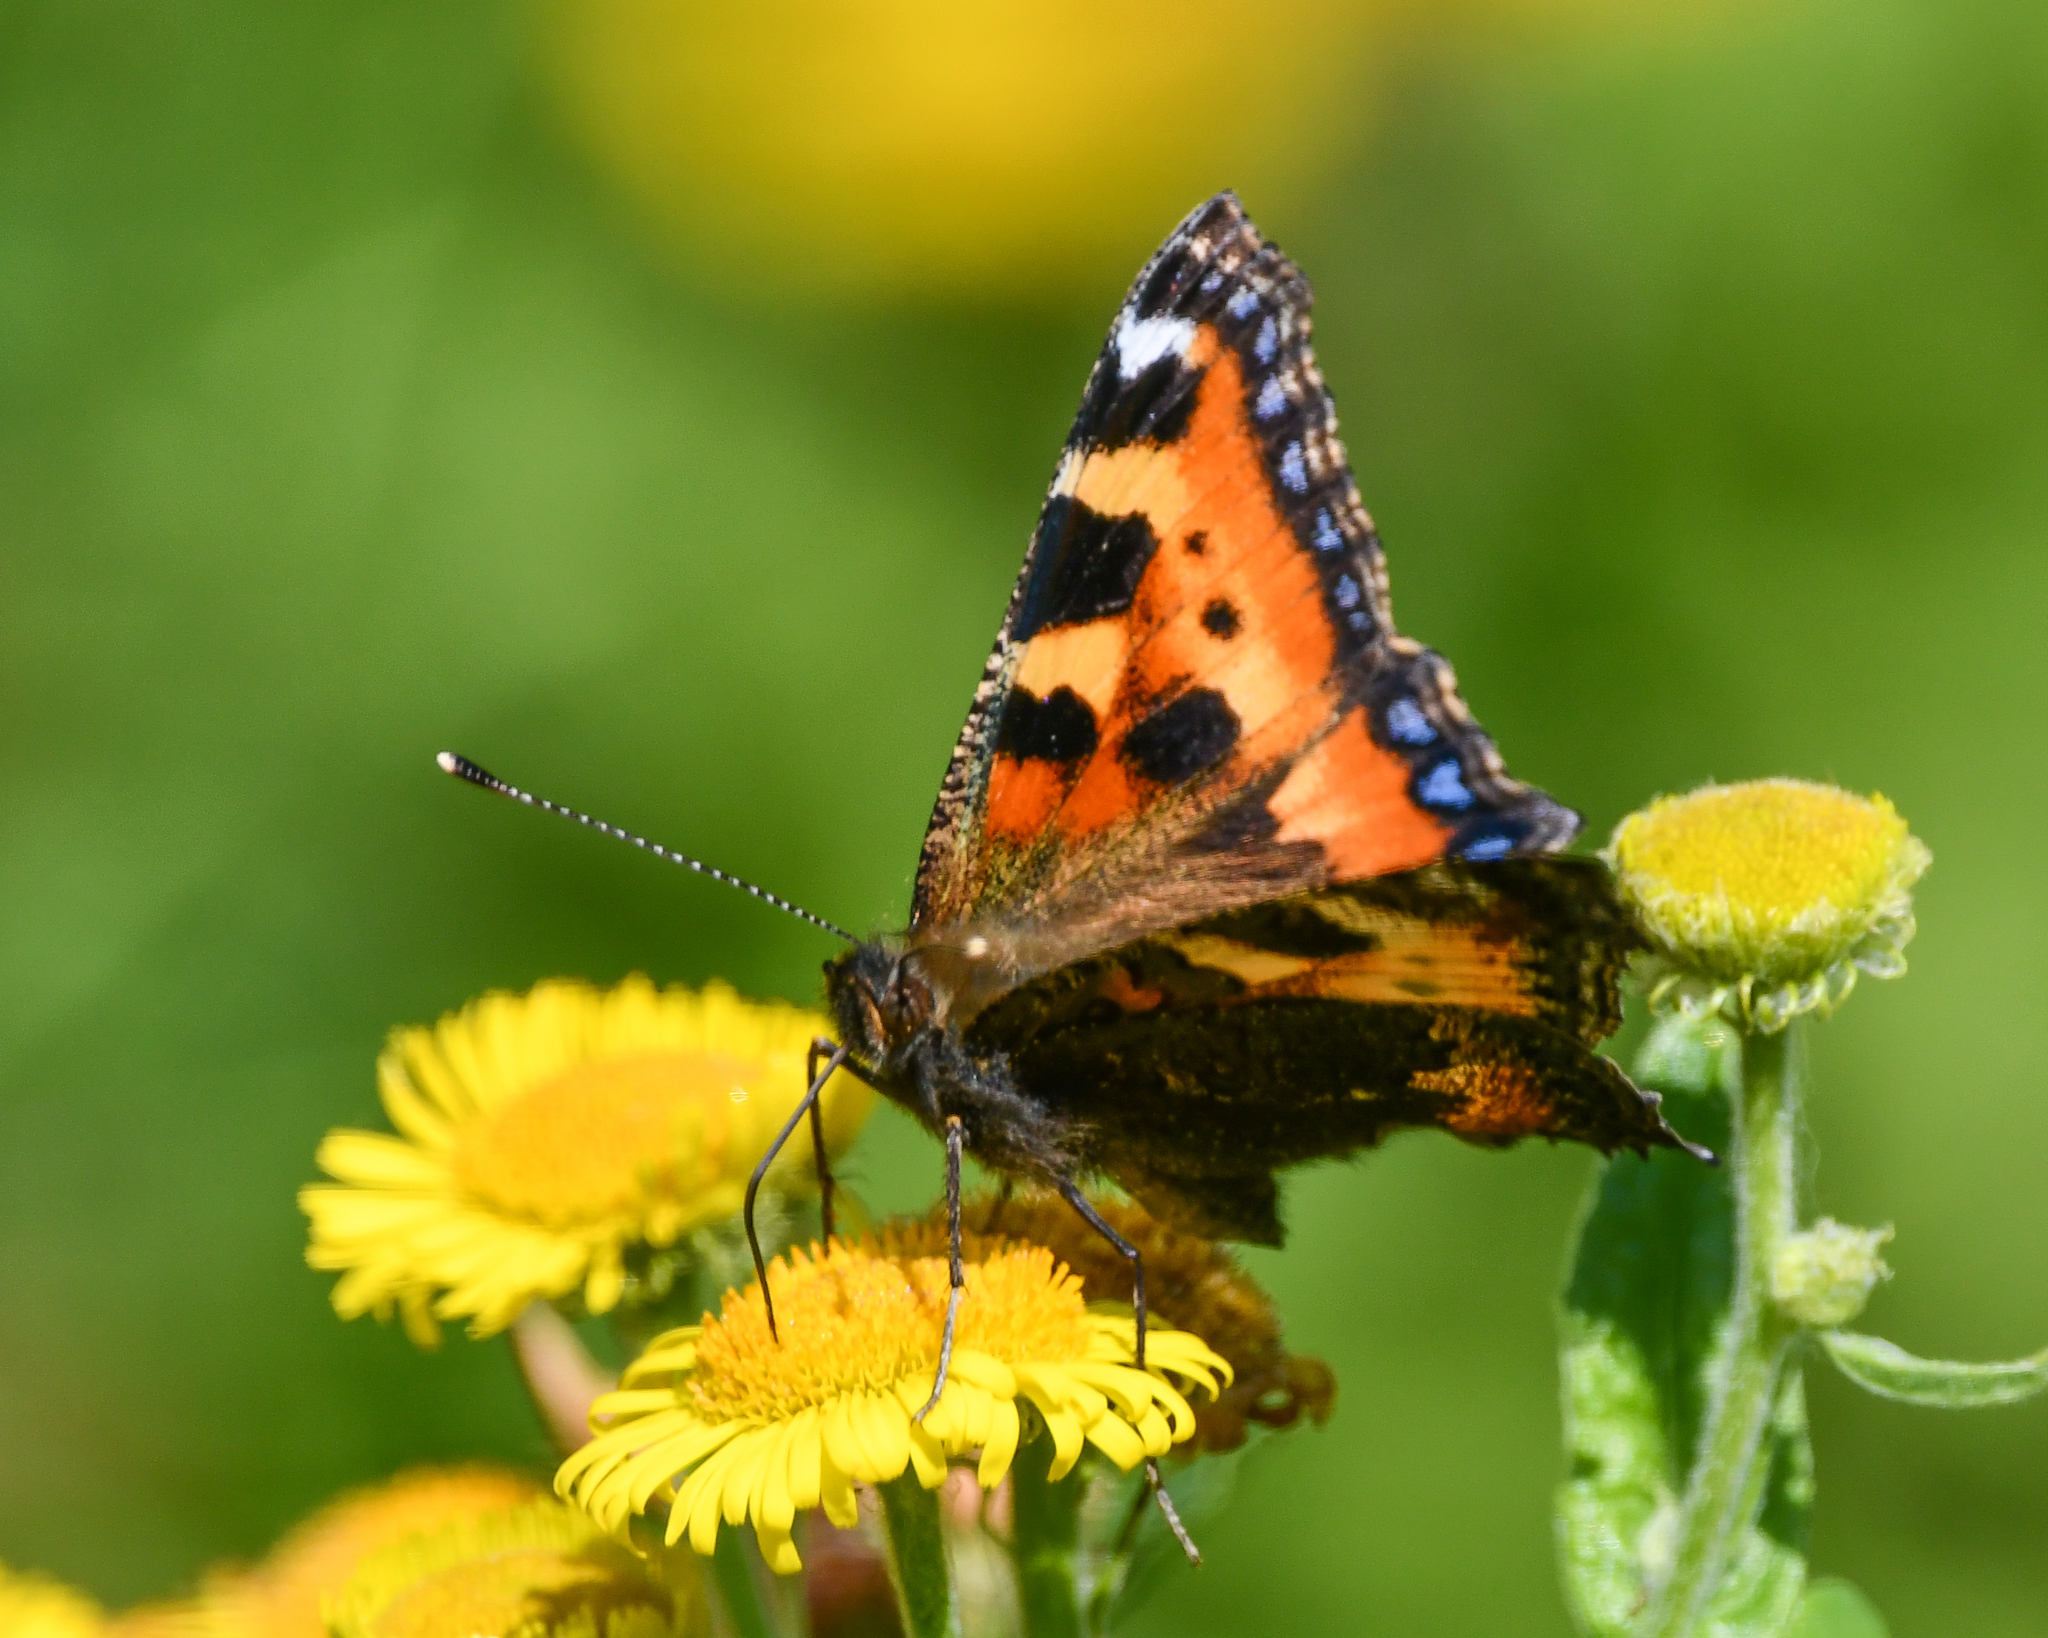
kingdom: Animalia
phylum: Arthropoda
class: Insecta
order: Lepidoptera
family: Nymphalidae
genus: Aglais
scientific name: Aglais urticae
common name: Small tortoiseshell
